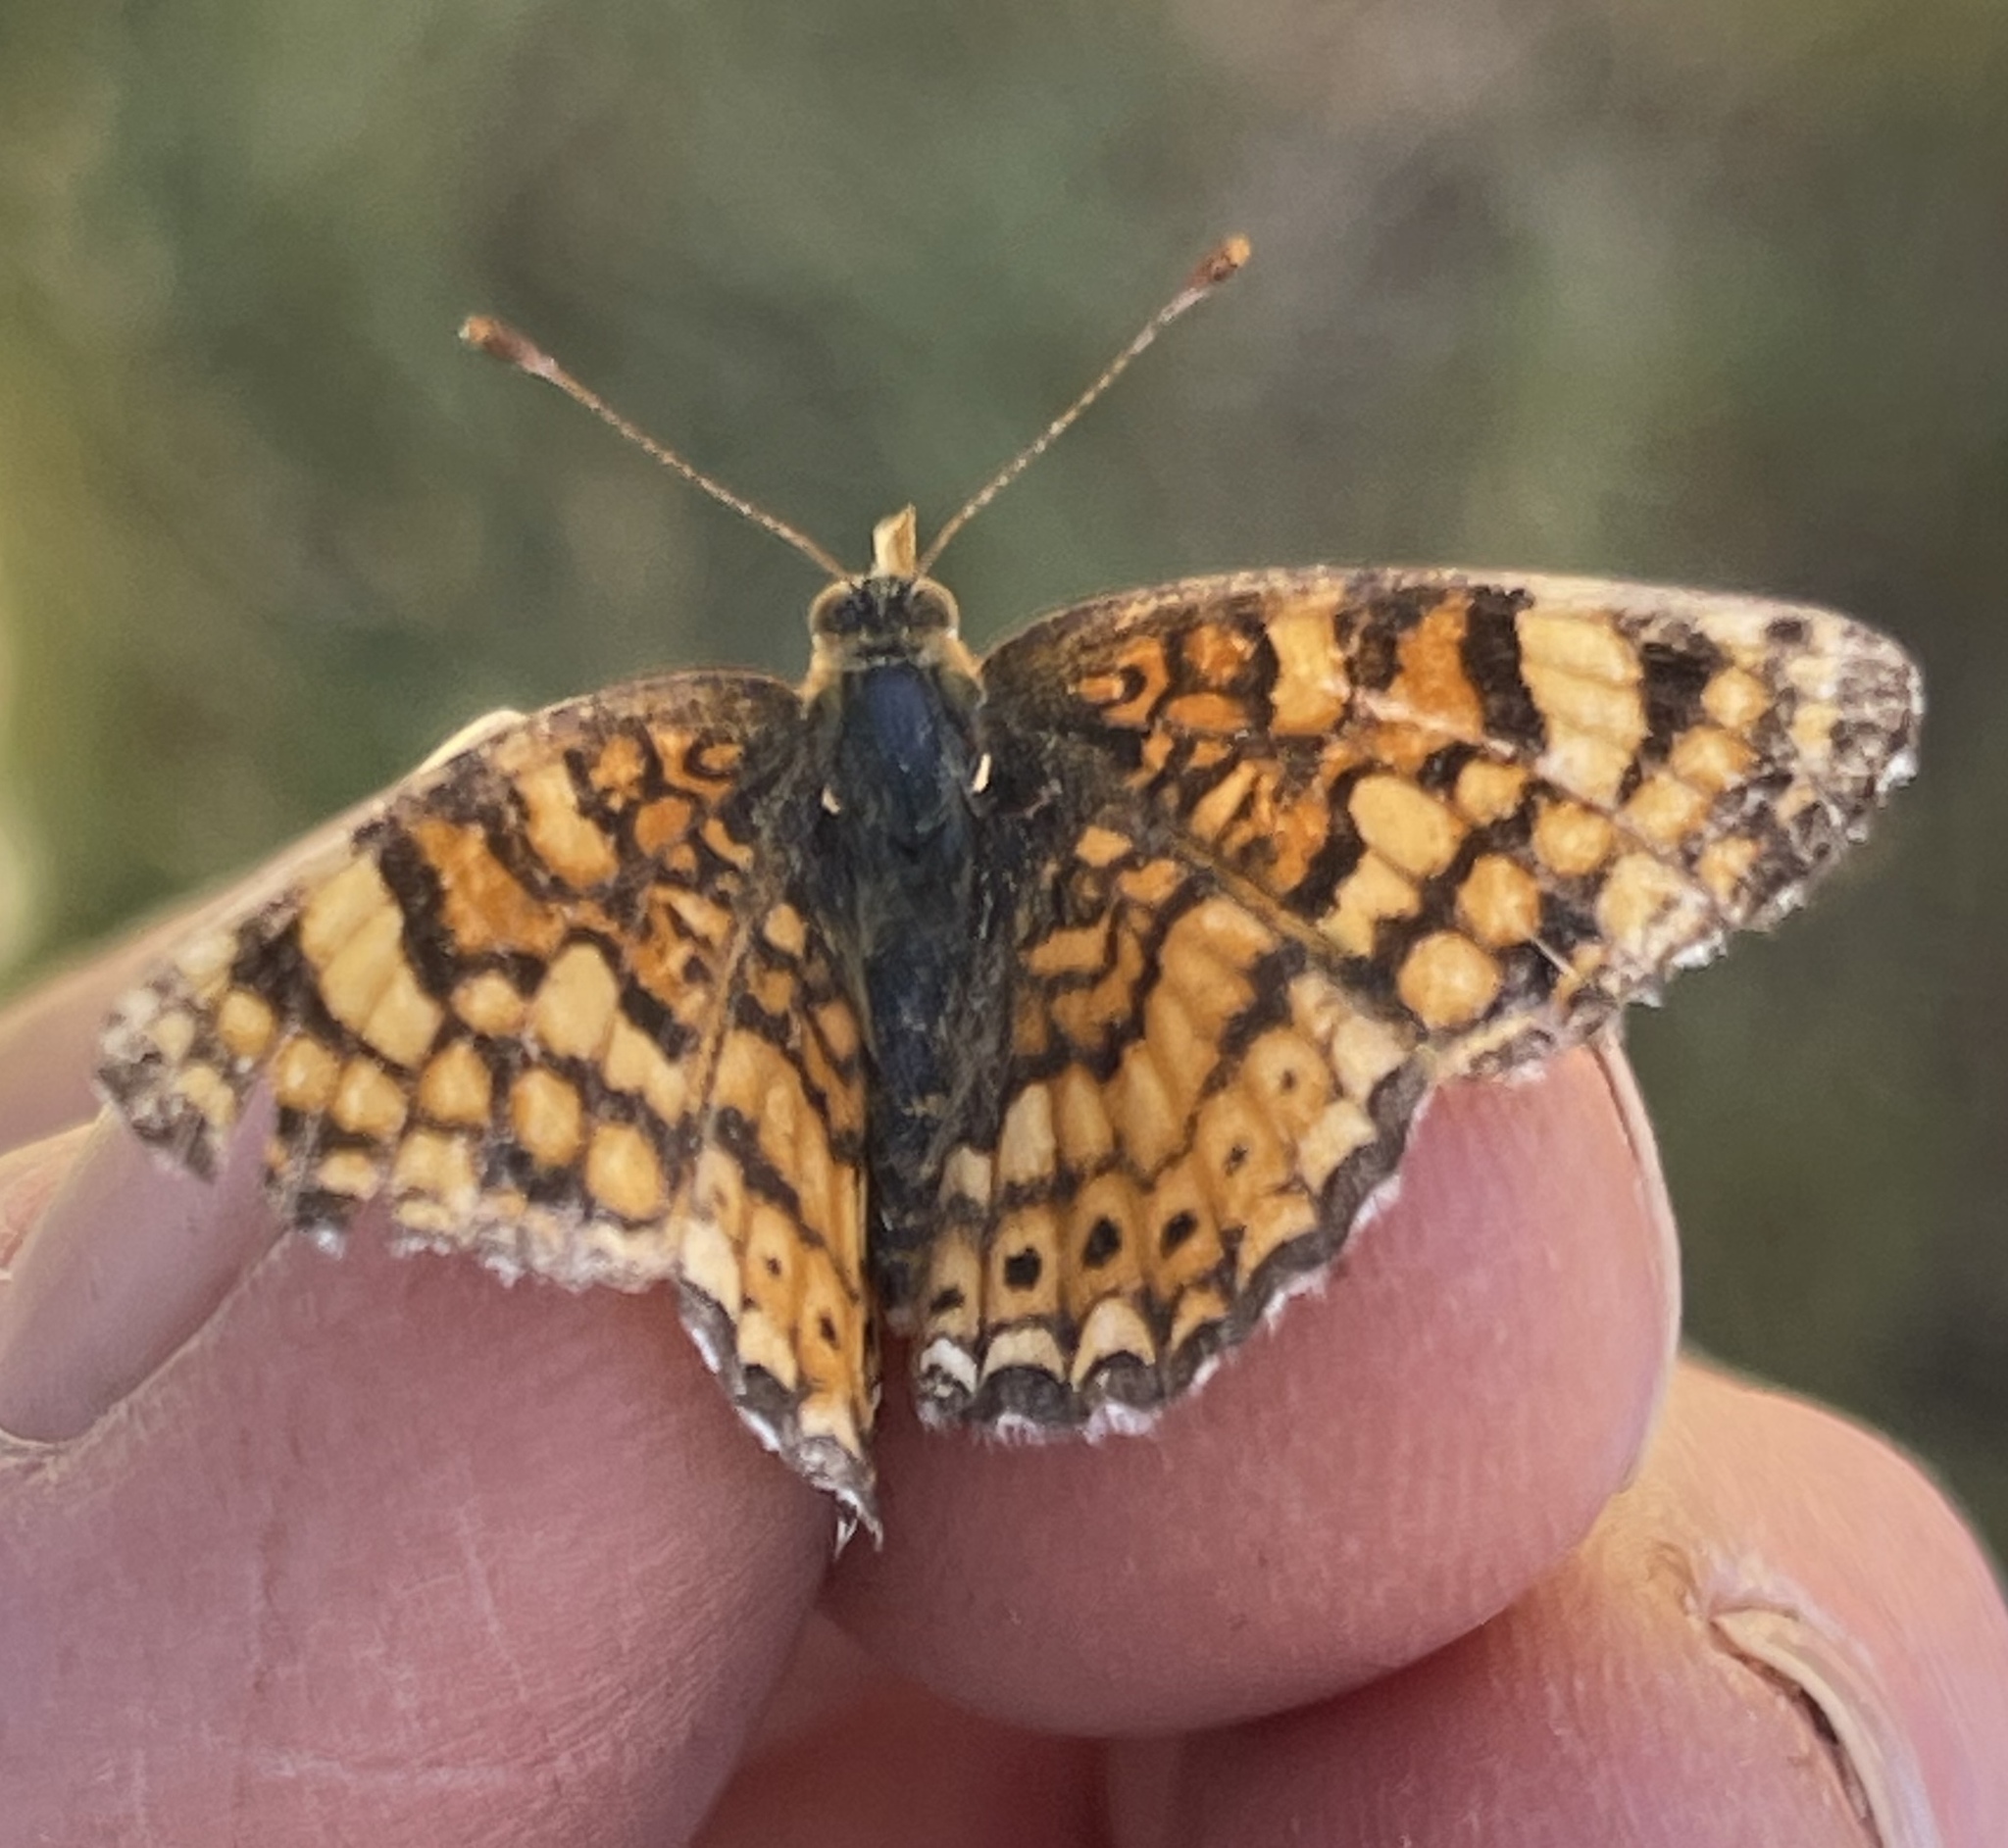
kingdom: Animalia
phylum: Arthropoda
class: Insecta
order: Lepidoptera
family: Nymphalidae
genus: Eresia
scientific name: Eresia aveyrona
